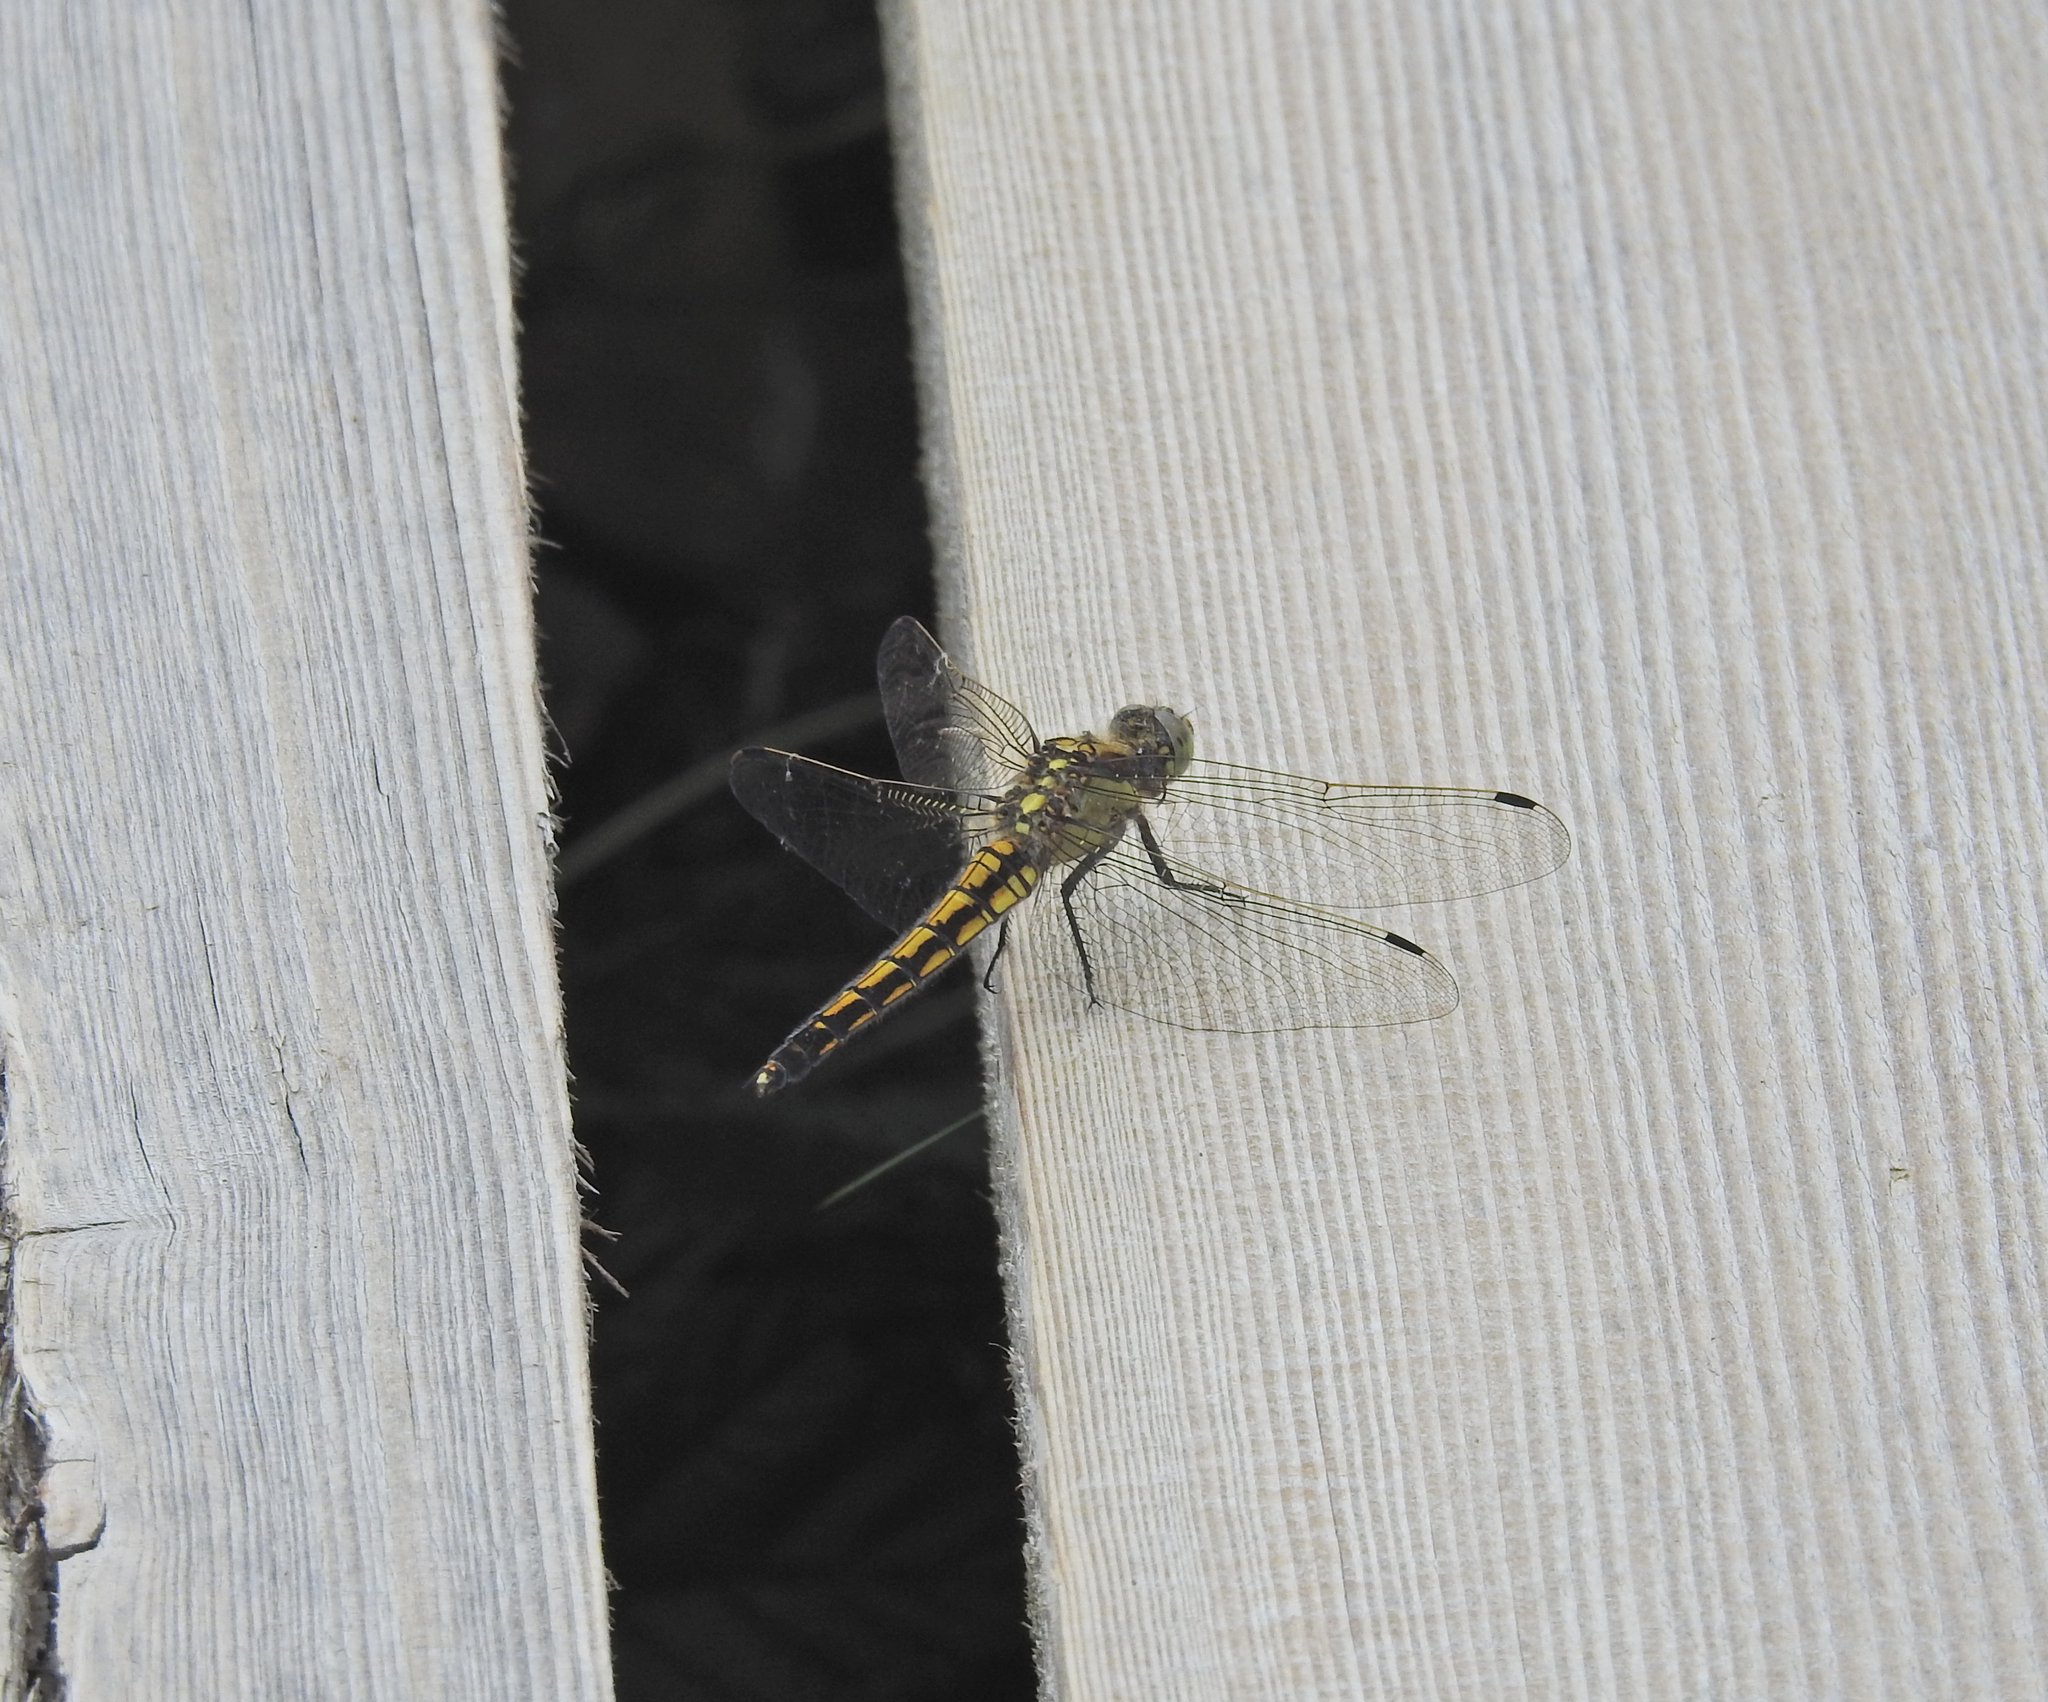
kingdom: Animalia
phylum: Arthropoda
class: Insecta
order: Odonata
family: Libellulidae
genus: Orthetrum
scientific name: Orthetrum cancellatum
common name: Black-tailed skimmer
